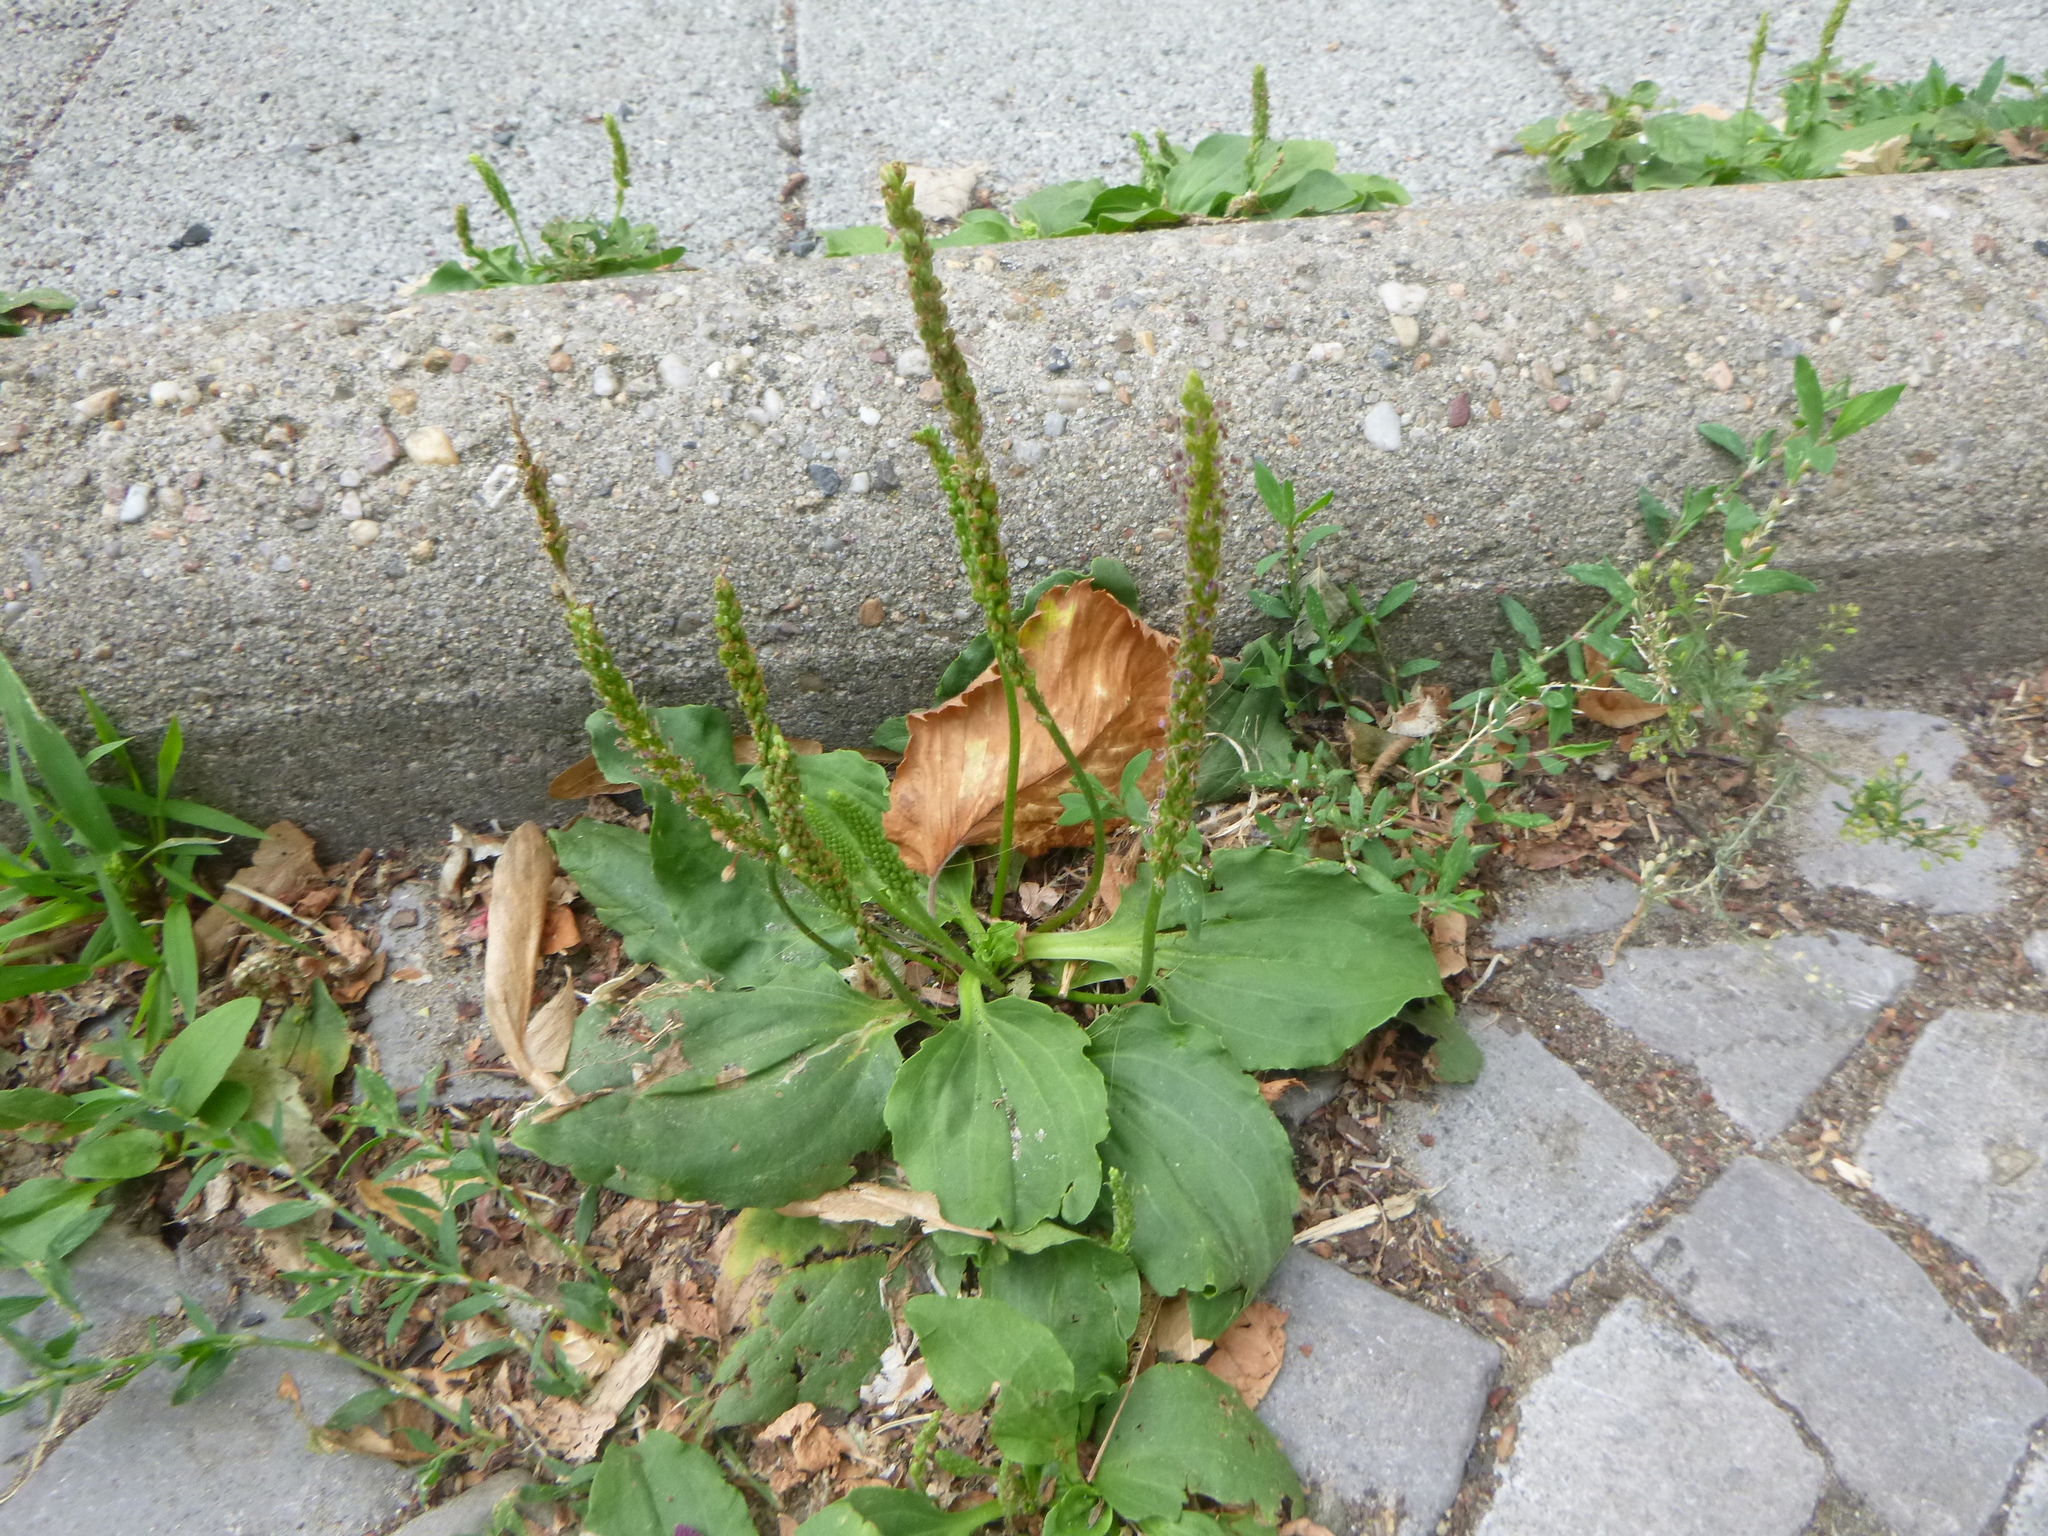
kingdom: Plantae
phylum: Tracheophyta
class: Magnoliopsida
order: Lamiales
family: Plantaginaceae
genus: Plantago
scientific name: Plantago major
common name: Common plantain
